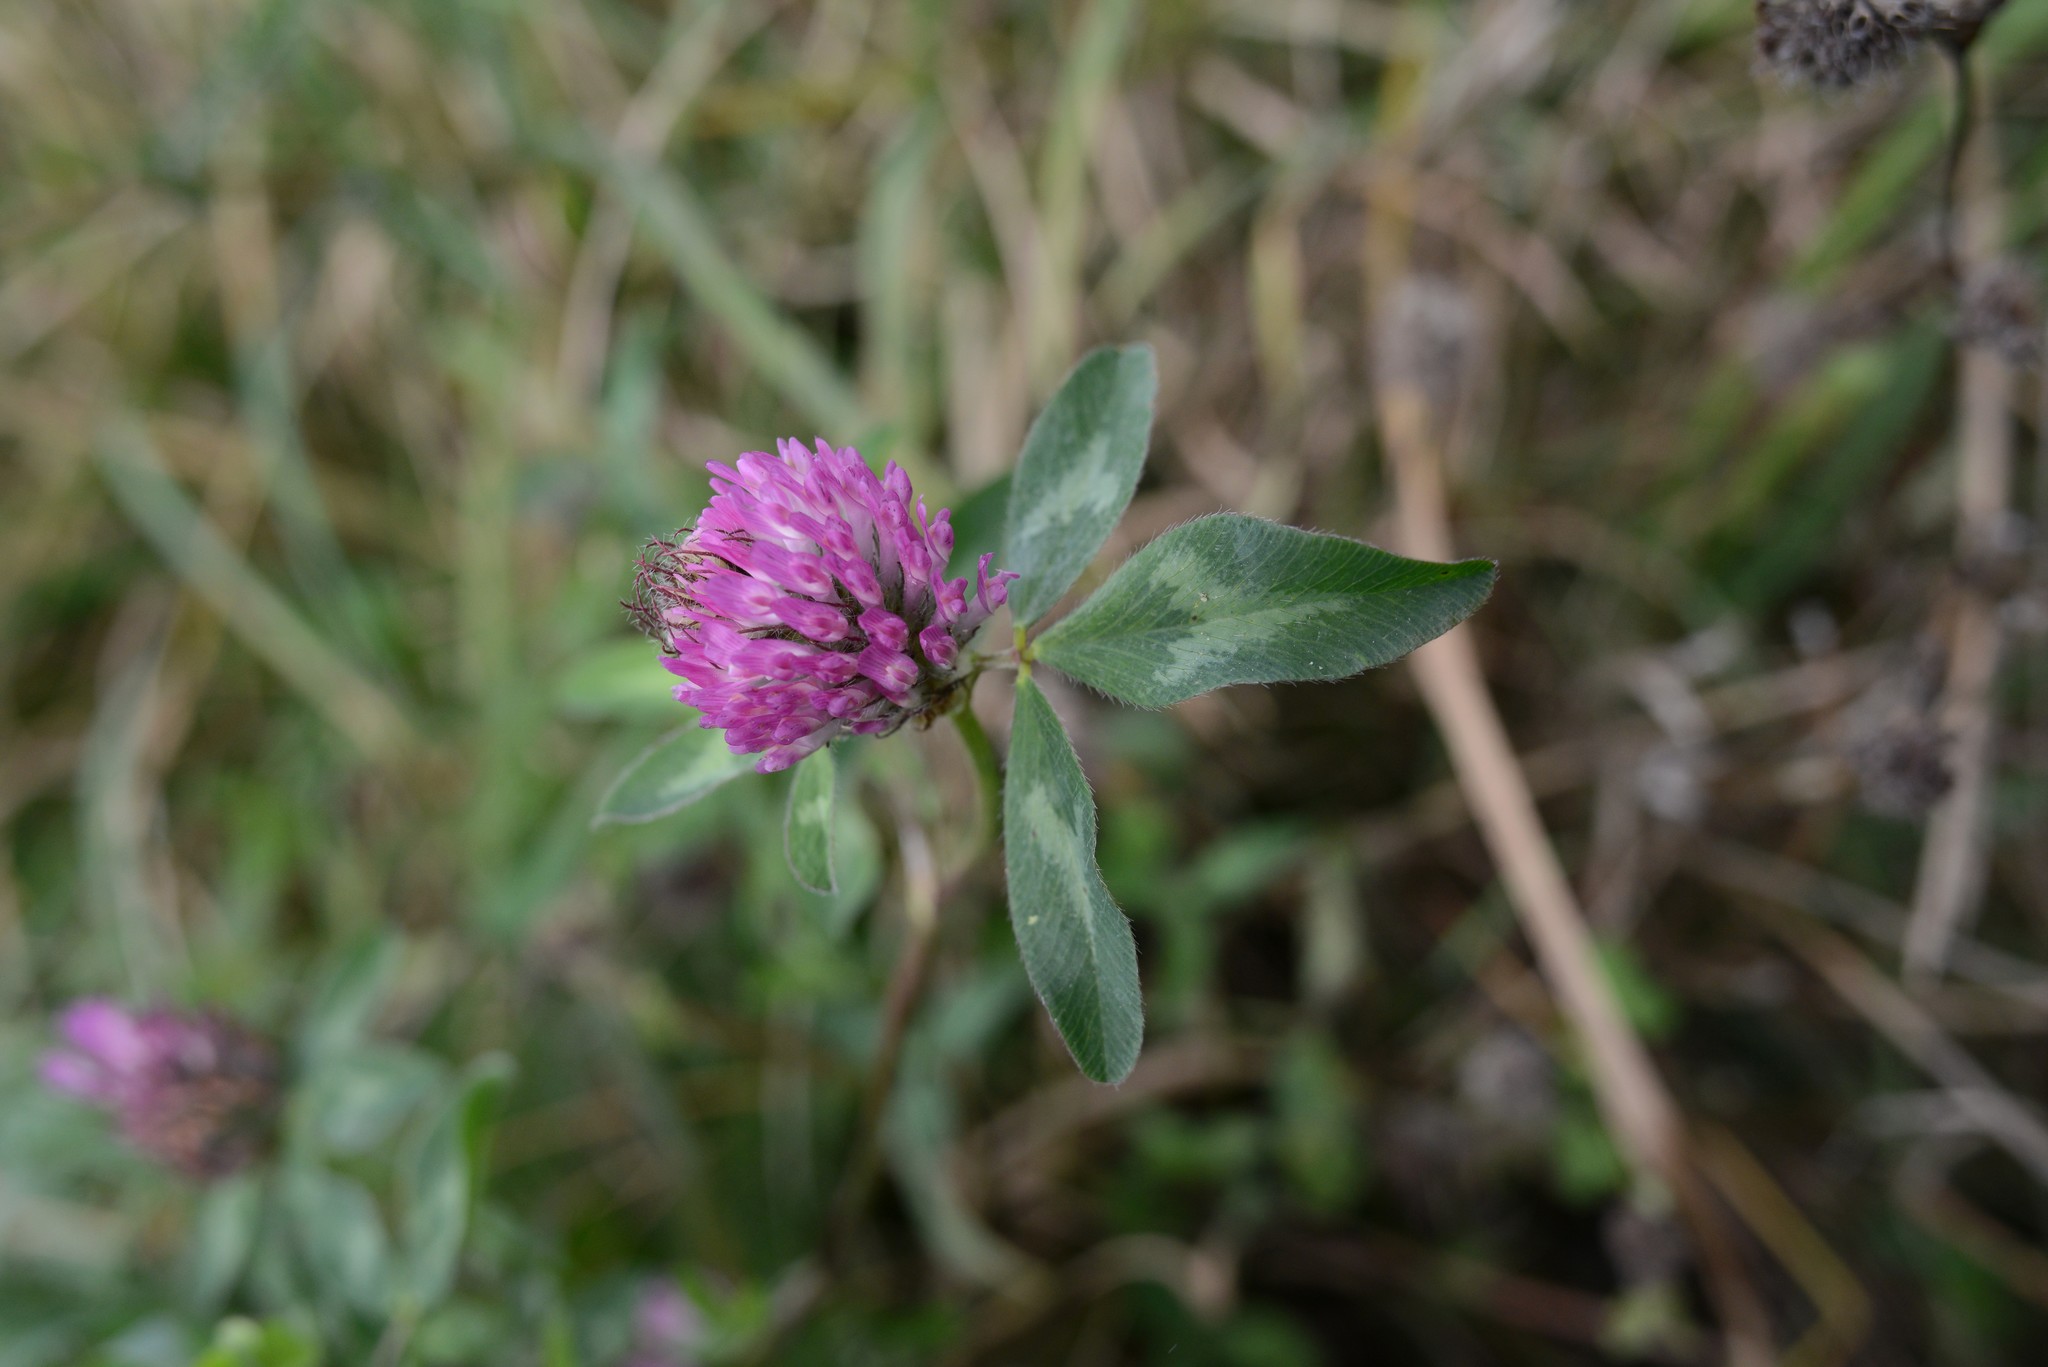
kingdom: Plantae
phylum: Tracheophyta
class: Magnoliopsida
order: Fabales
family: Fabaceae
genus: Trifolium
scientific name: Trifolium pratense
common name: Red clover
